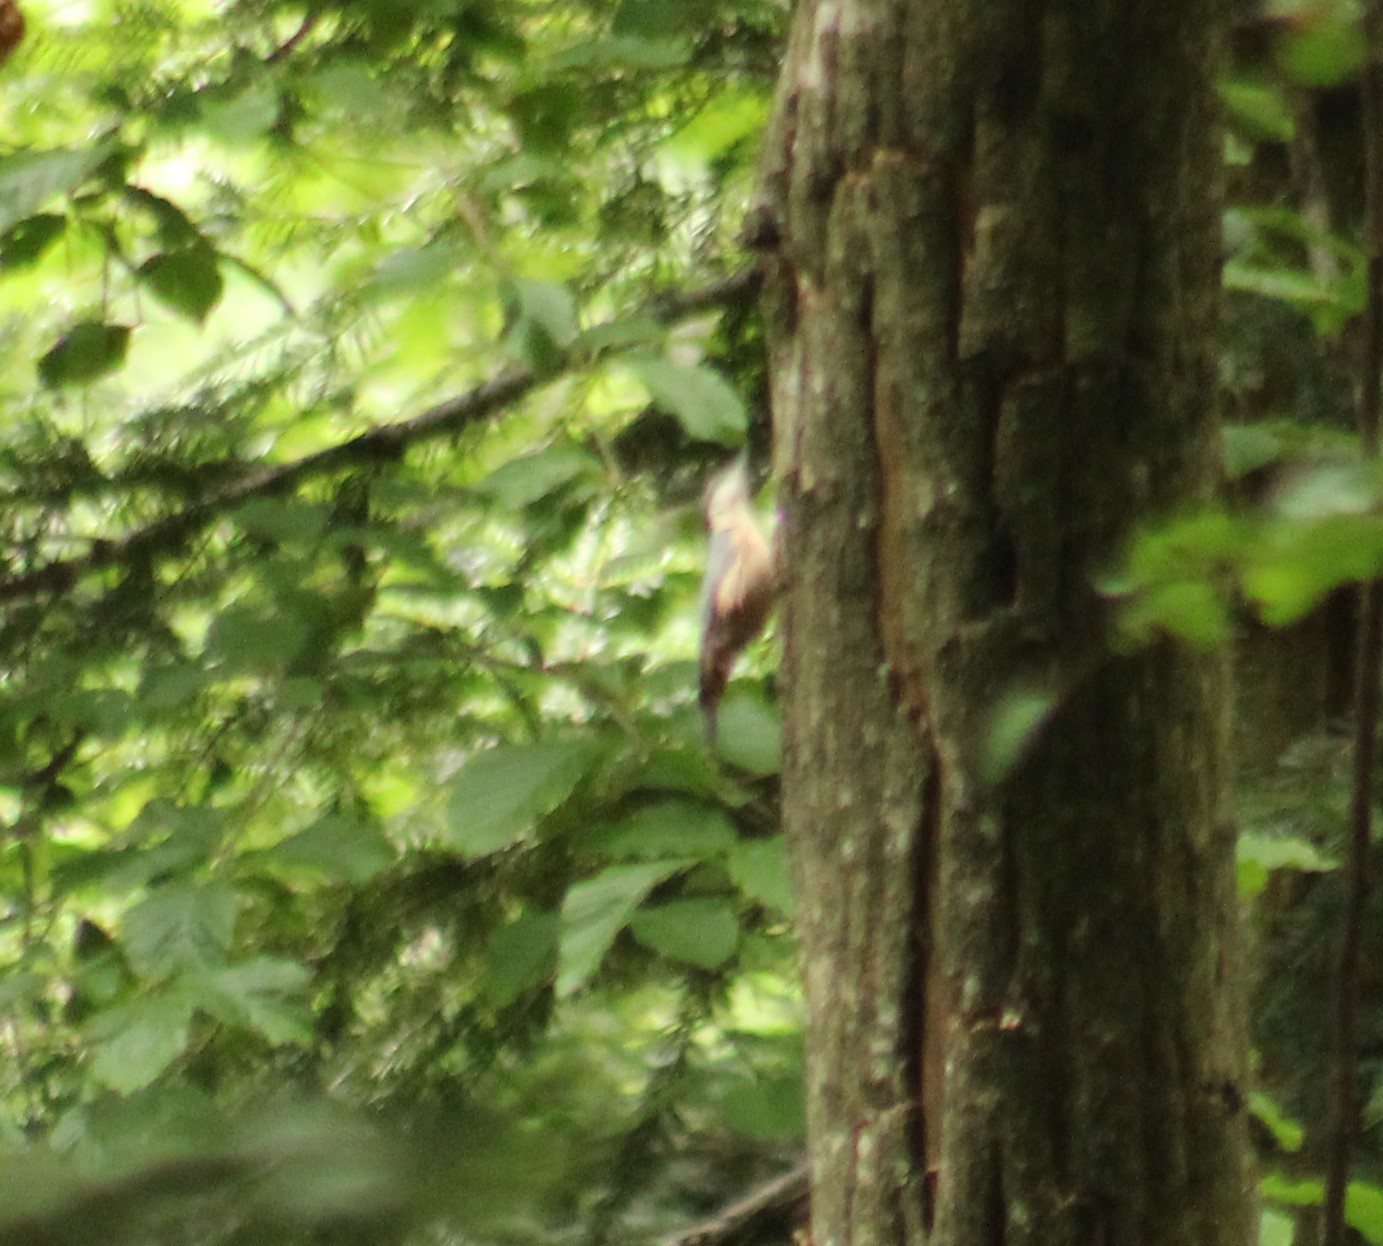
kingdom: Animalia
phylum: Chordata
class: Aves
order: Passeriformes
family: Sittidae
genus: Sitta
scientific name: Sitta europaea
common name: Eurasian nuthatch
